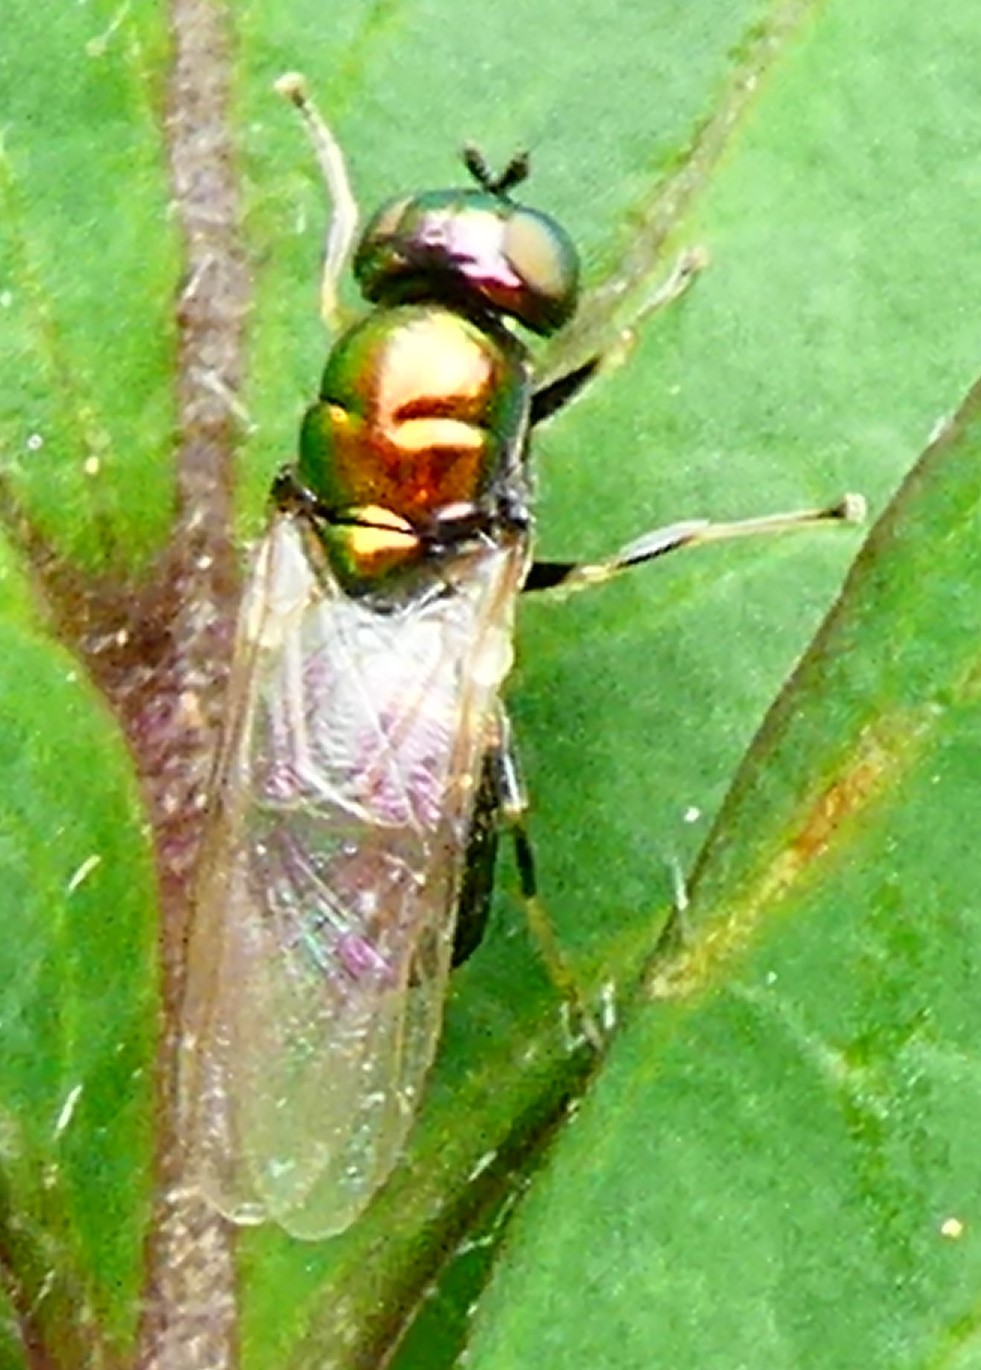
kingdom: Animalia
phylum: Arthropoda
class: Insecta
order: Diptera
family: Stratiomyidae
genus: Microchrysa
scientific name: Microchrysa polita
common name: Black-horned gem
